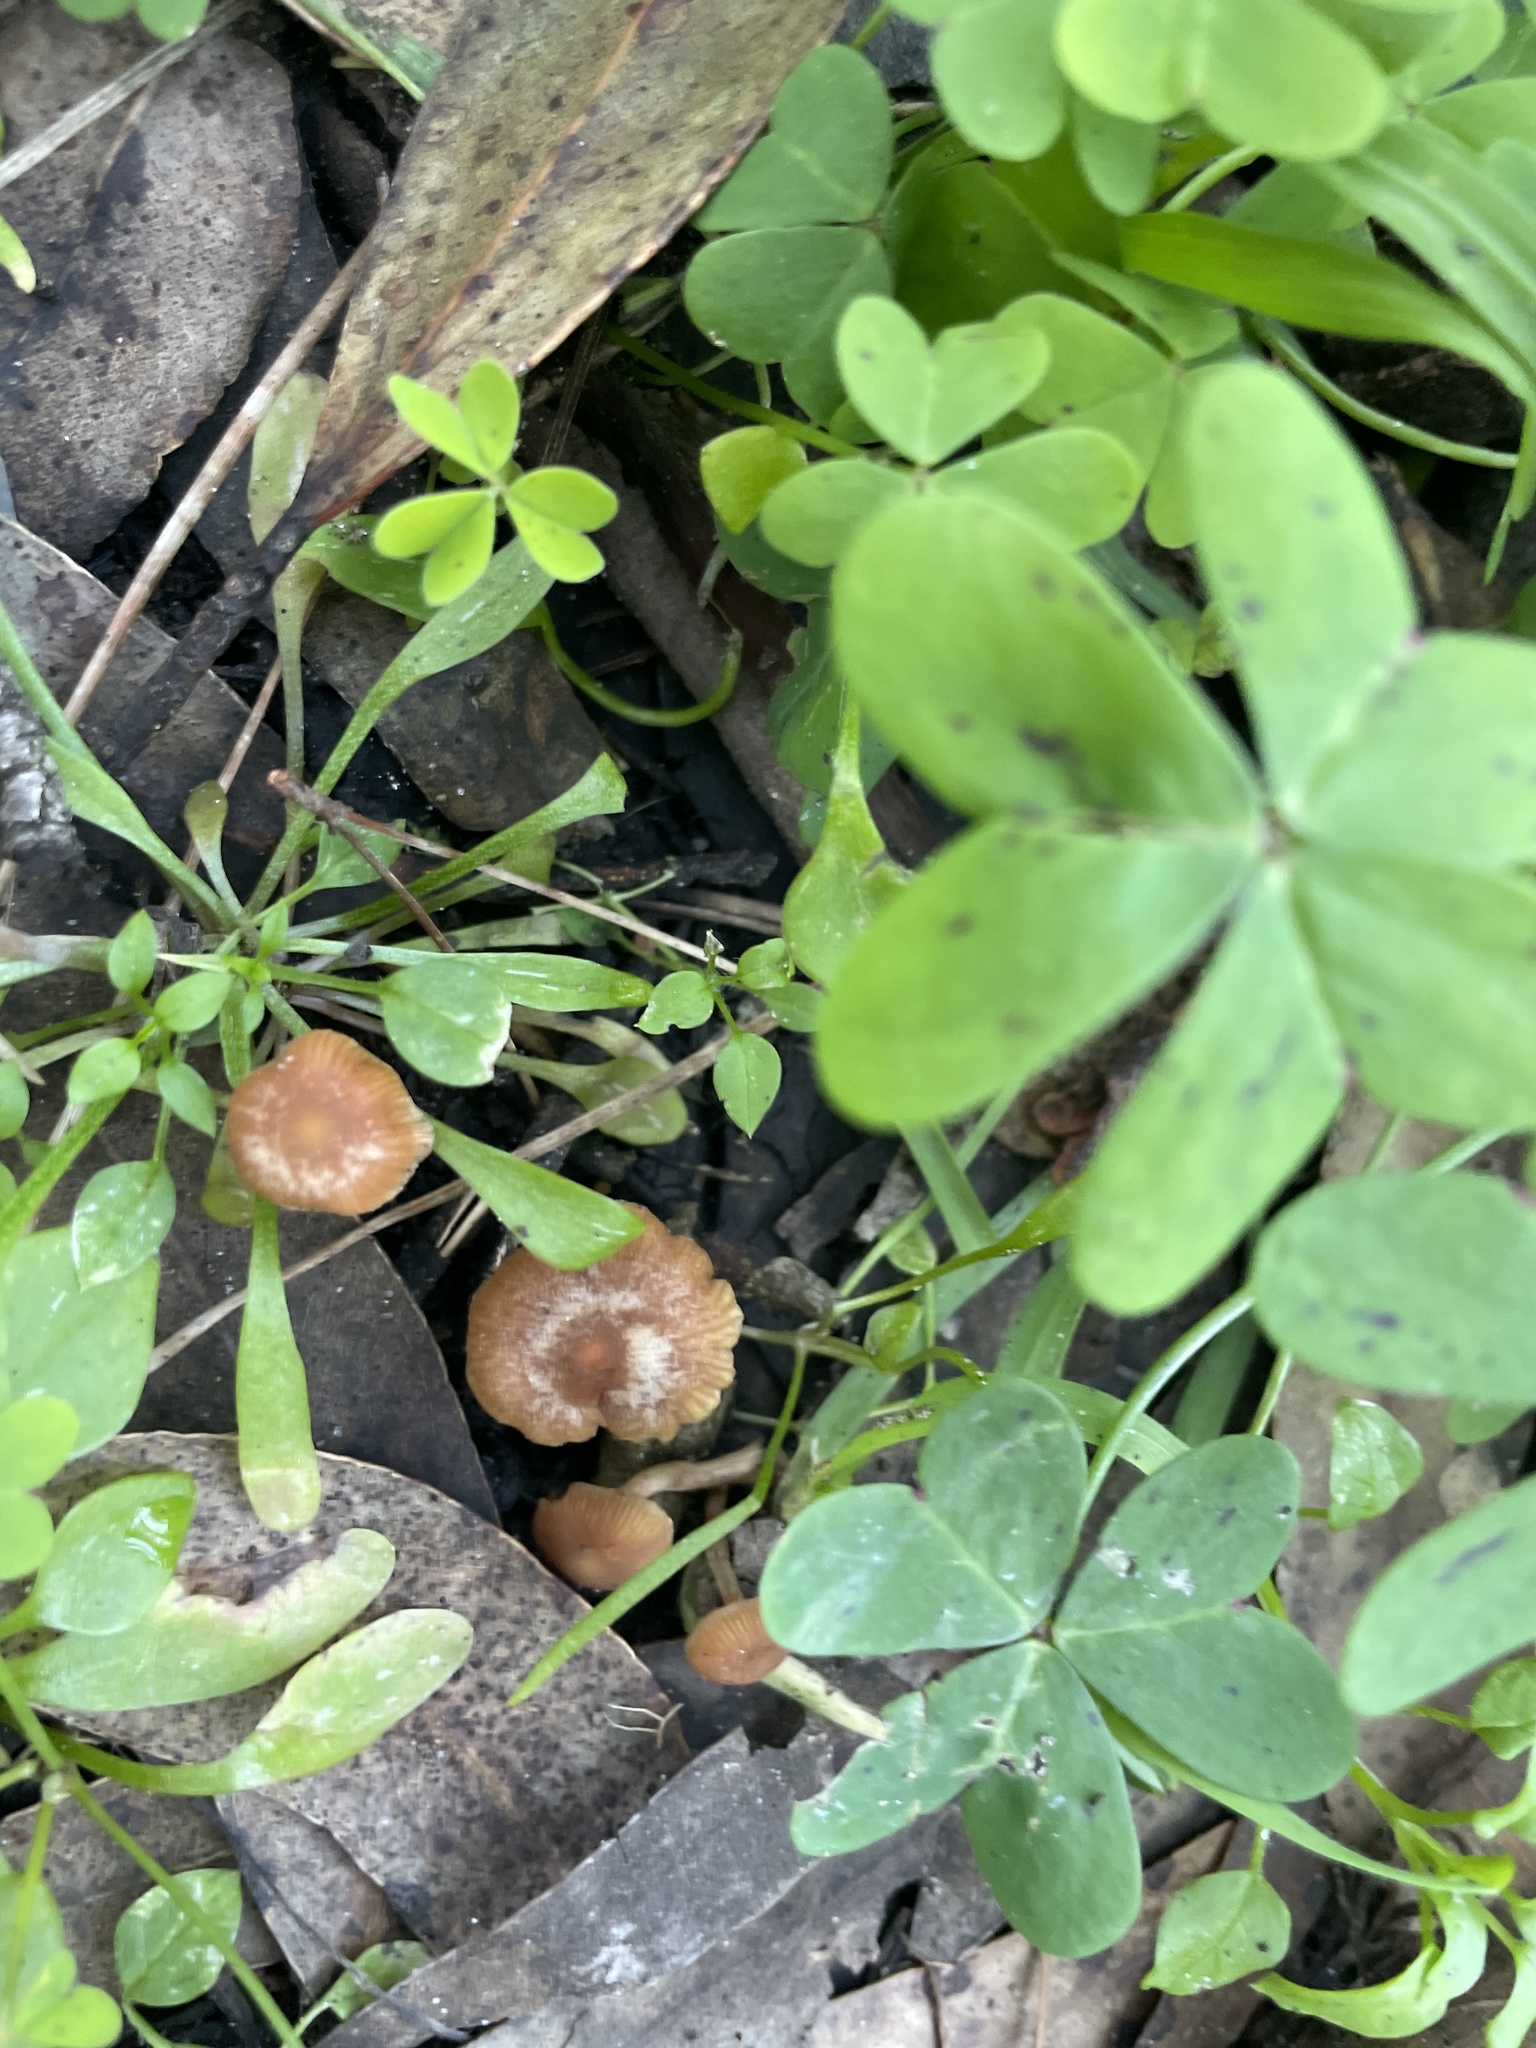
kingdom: Fungi
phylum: Basidiomycota
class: Agaricomycetes
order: Agaricales
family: Tubariaceae
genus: Tubaria
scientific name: Tubaria furfuracea
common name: Scurfy twiglet
